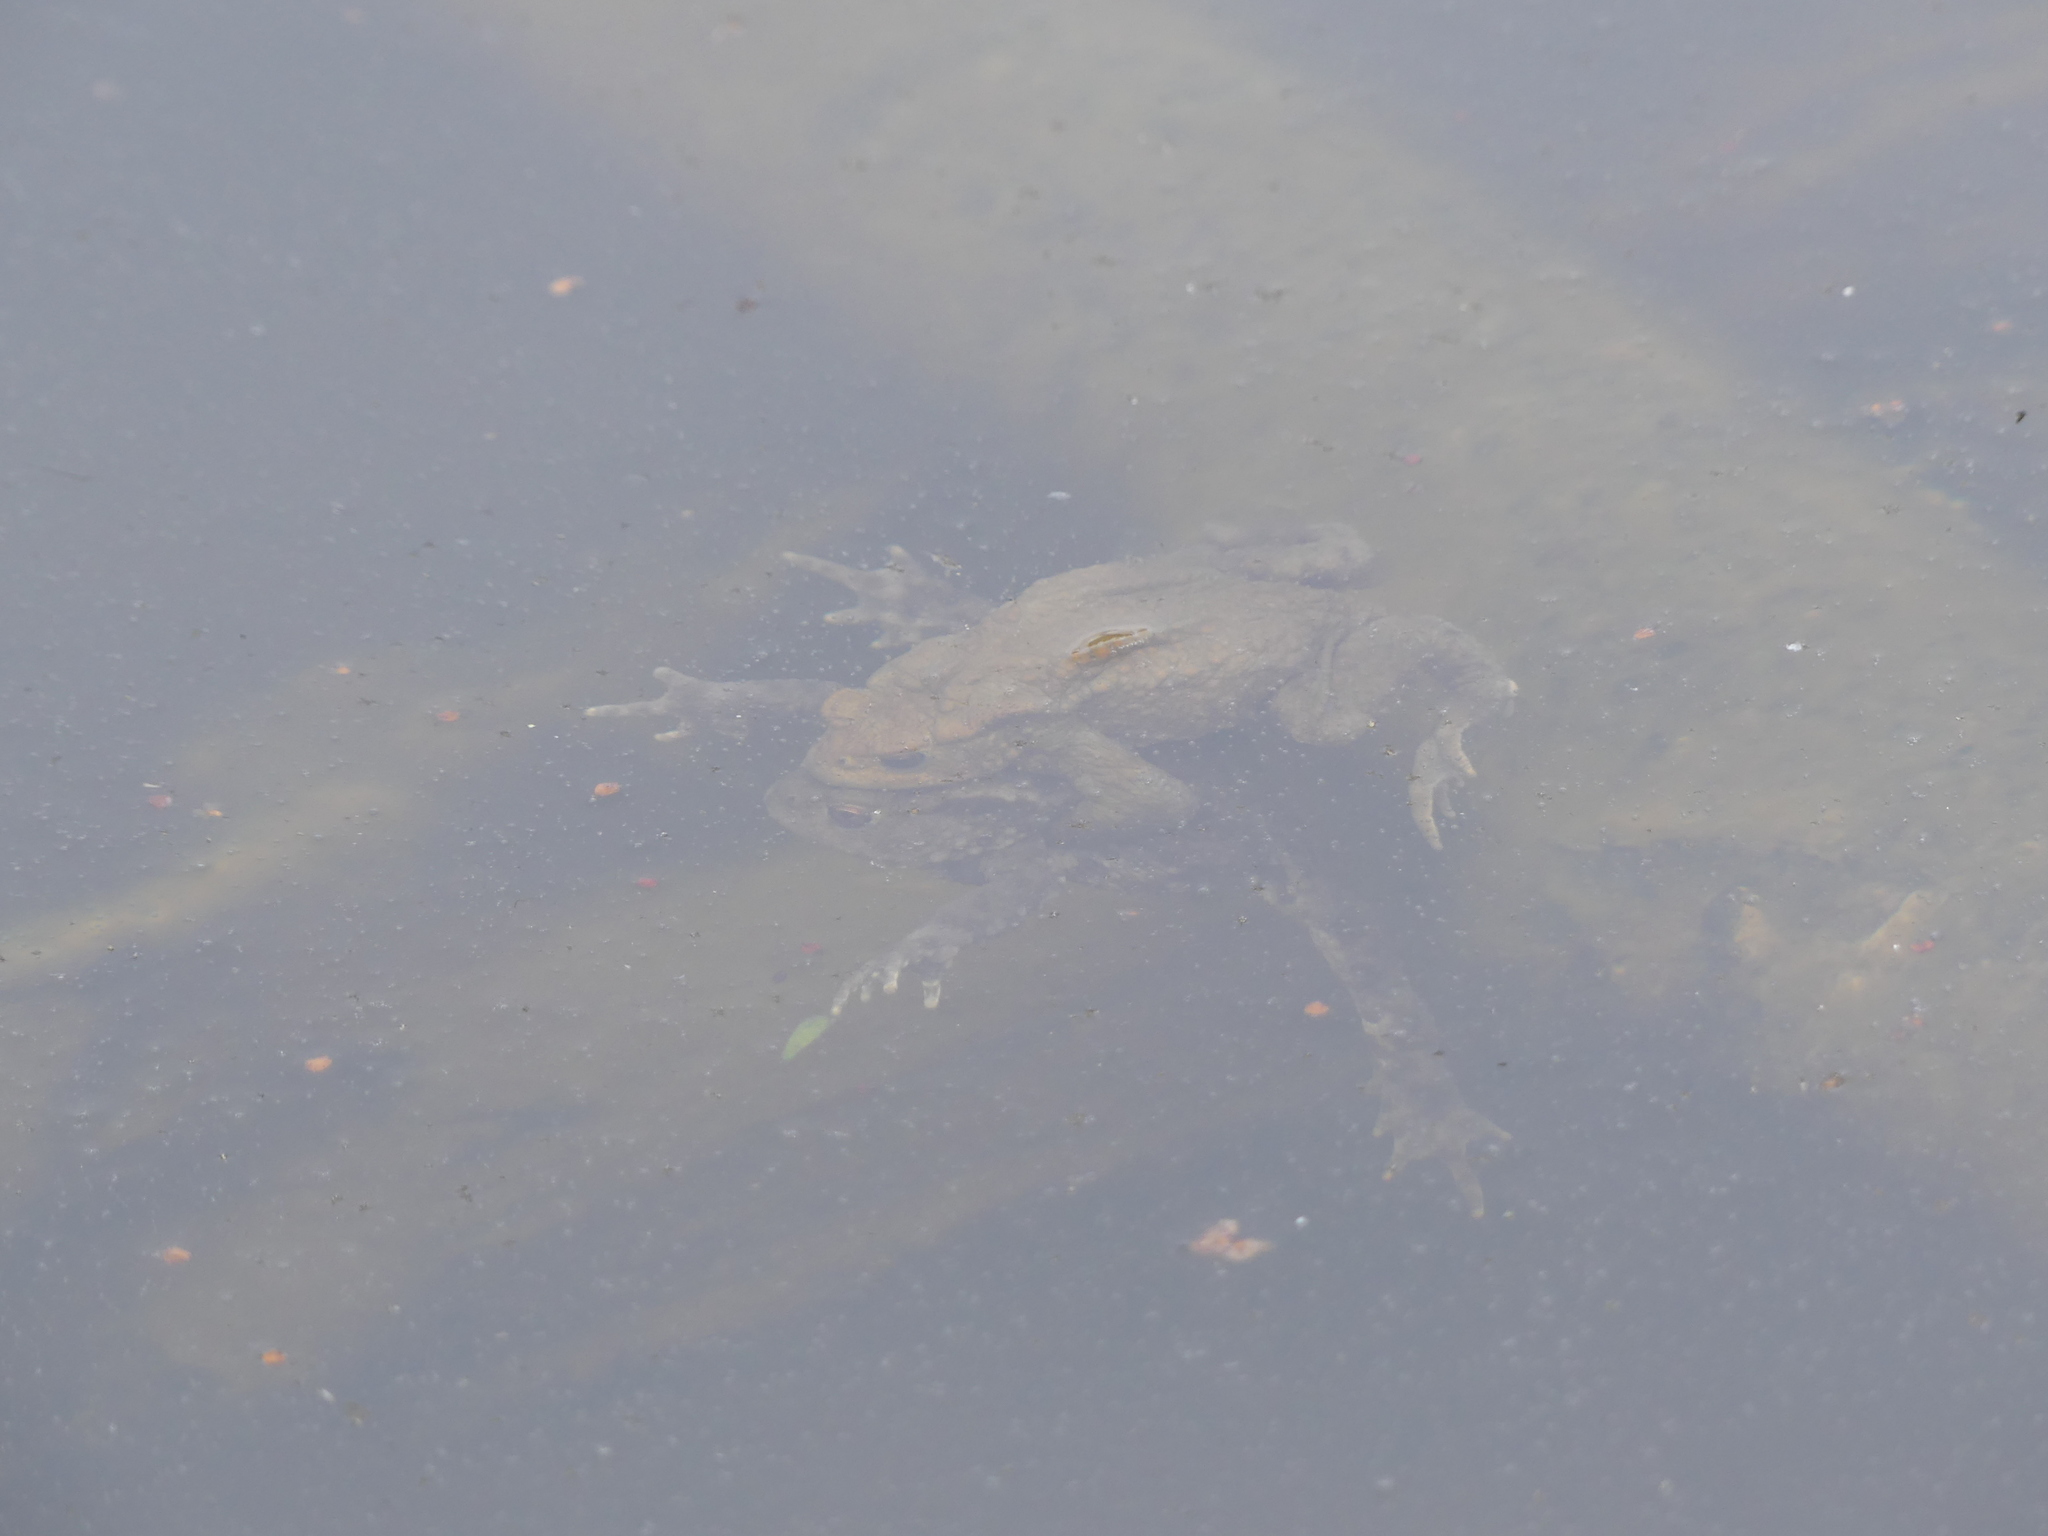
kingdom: Animalia
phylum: Chordata
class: Amphibia
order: Anura
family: Bufonidae
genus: Bufo
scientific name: Bufo bufo
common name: Common toad
